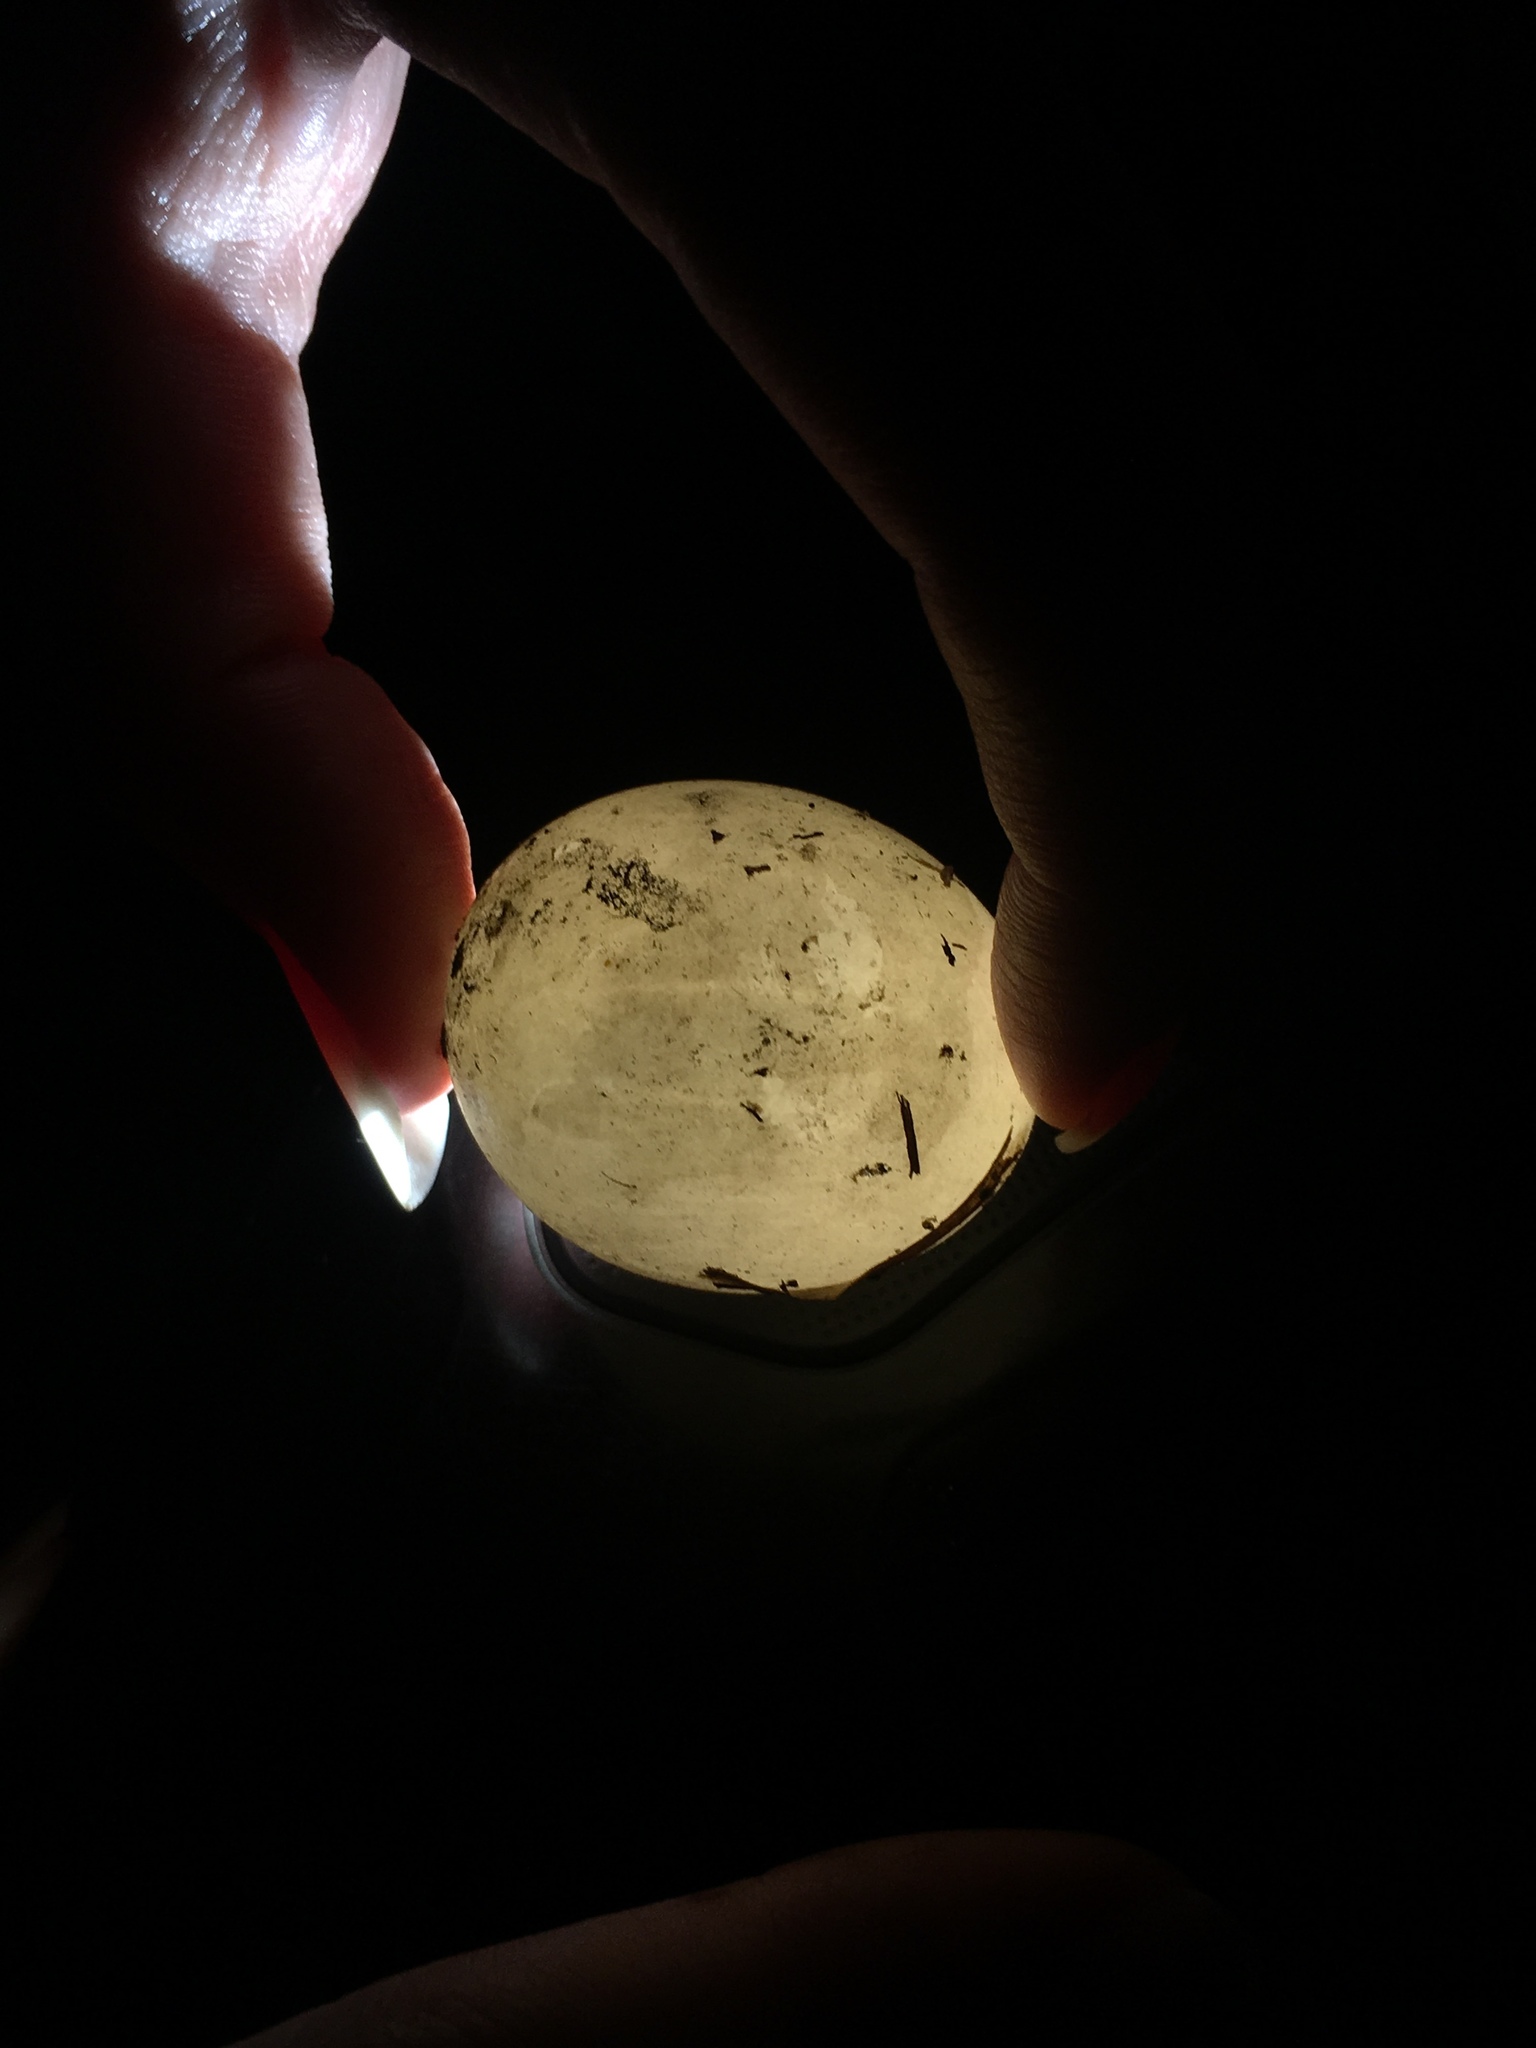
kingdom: Animalia
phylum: Chordata
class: Aves
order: Gruiformes
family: Rallidae
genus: Gallinula
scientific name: Gallinula chloropus
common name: Common moorhen
